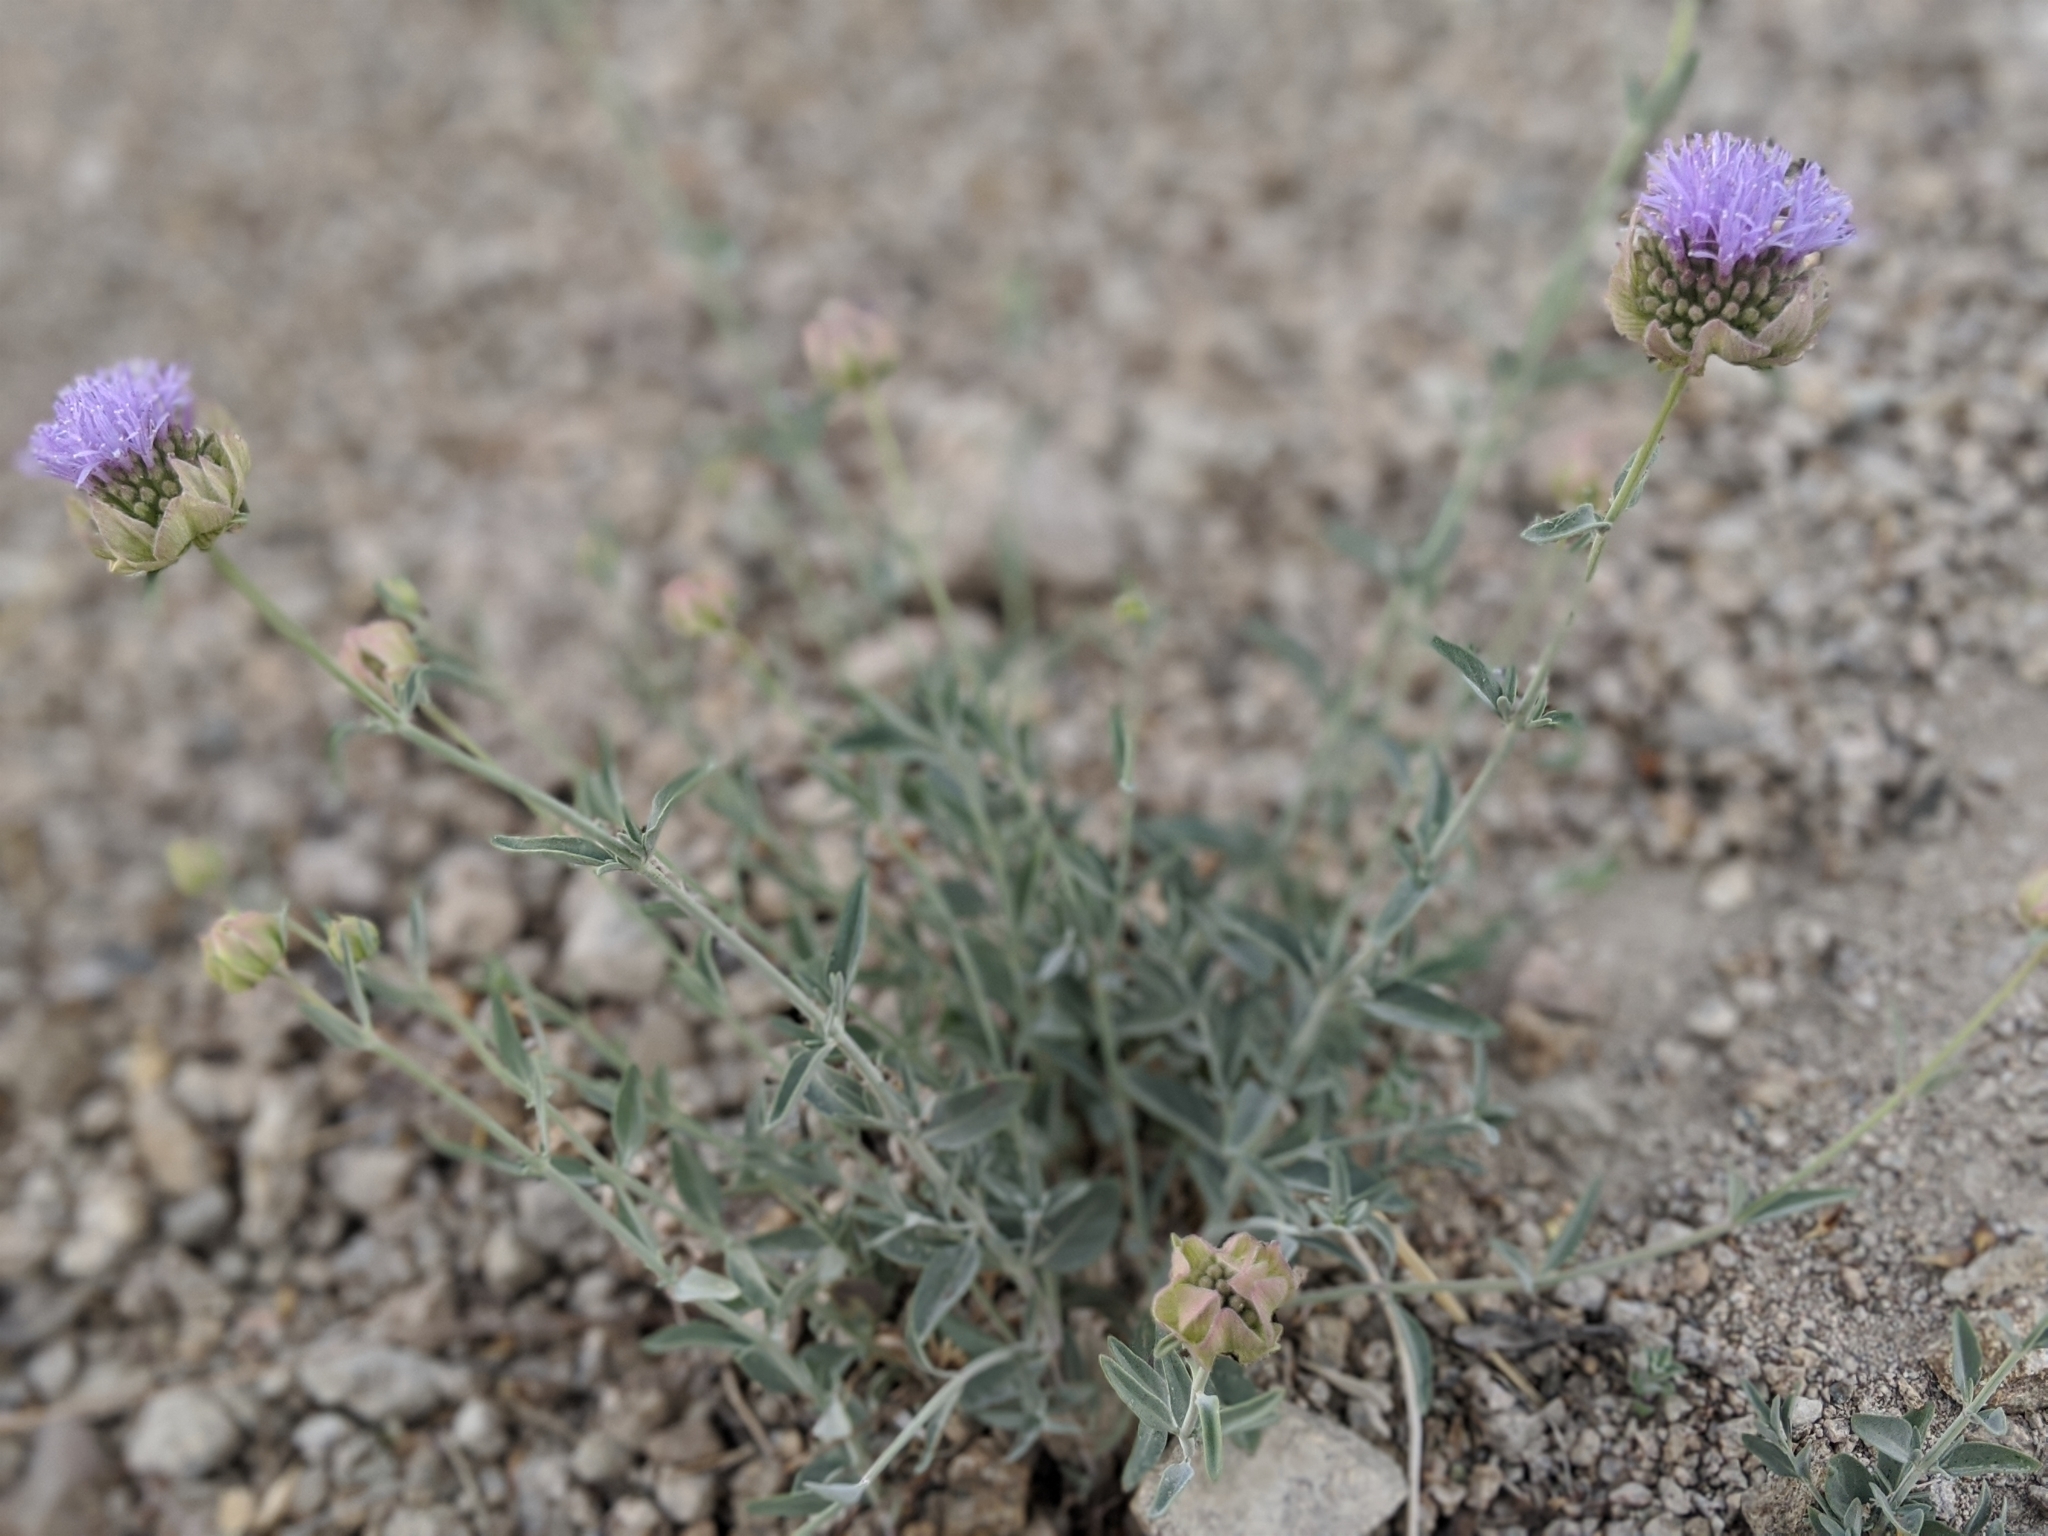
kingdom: Plantae
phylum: Tracheophyta
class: Magnoliopsida
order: Lamiales
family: Lamiaceae
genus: Monardella
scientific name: Monardella linoides
